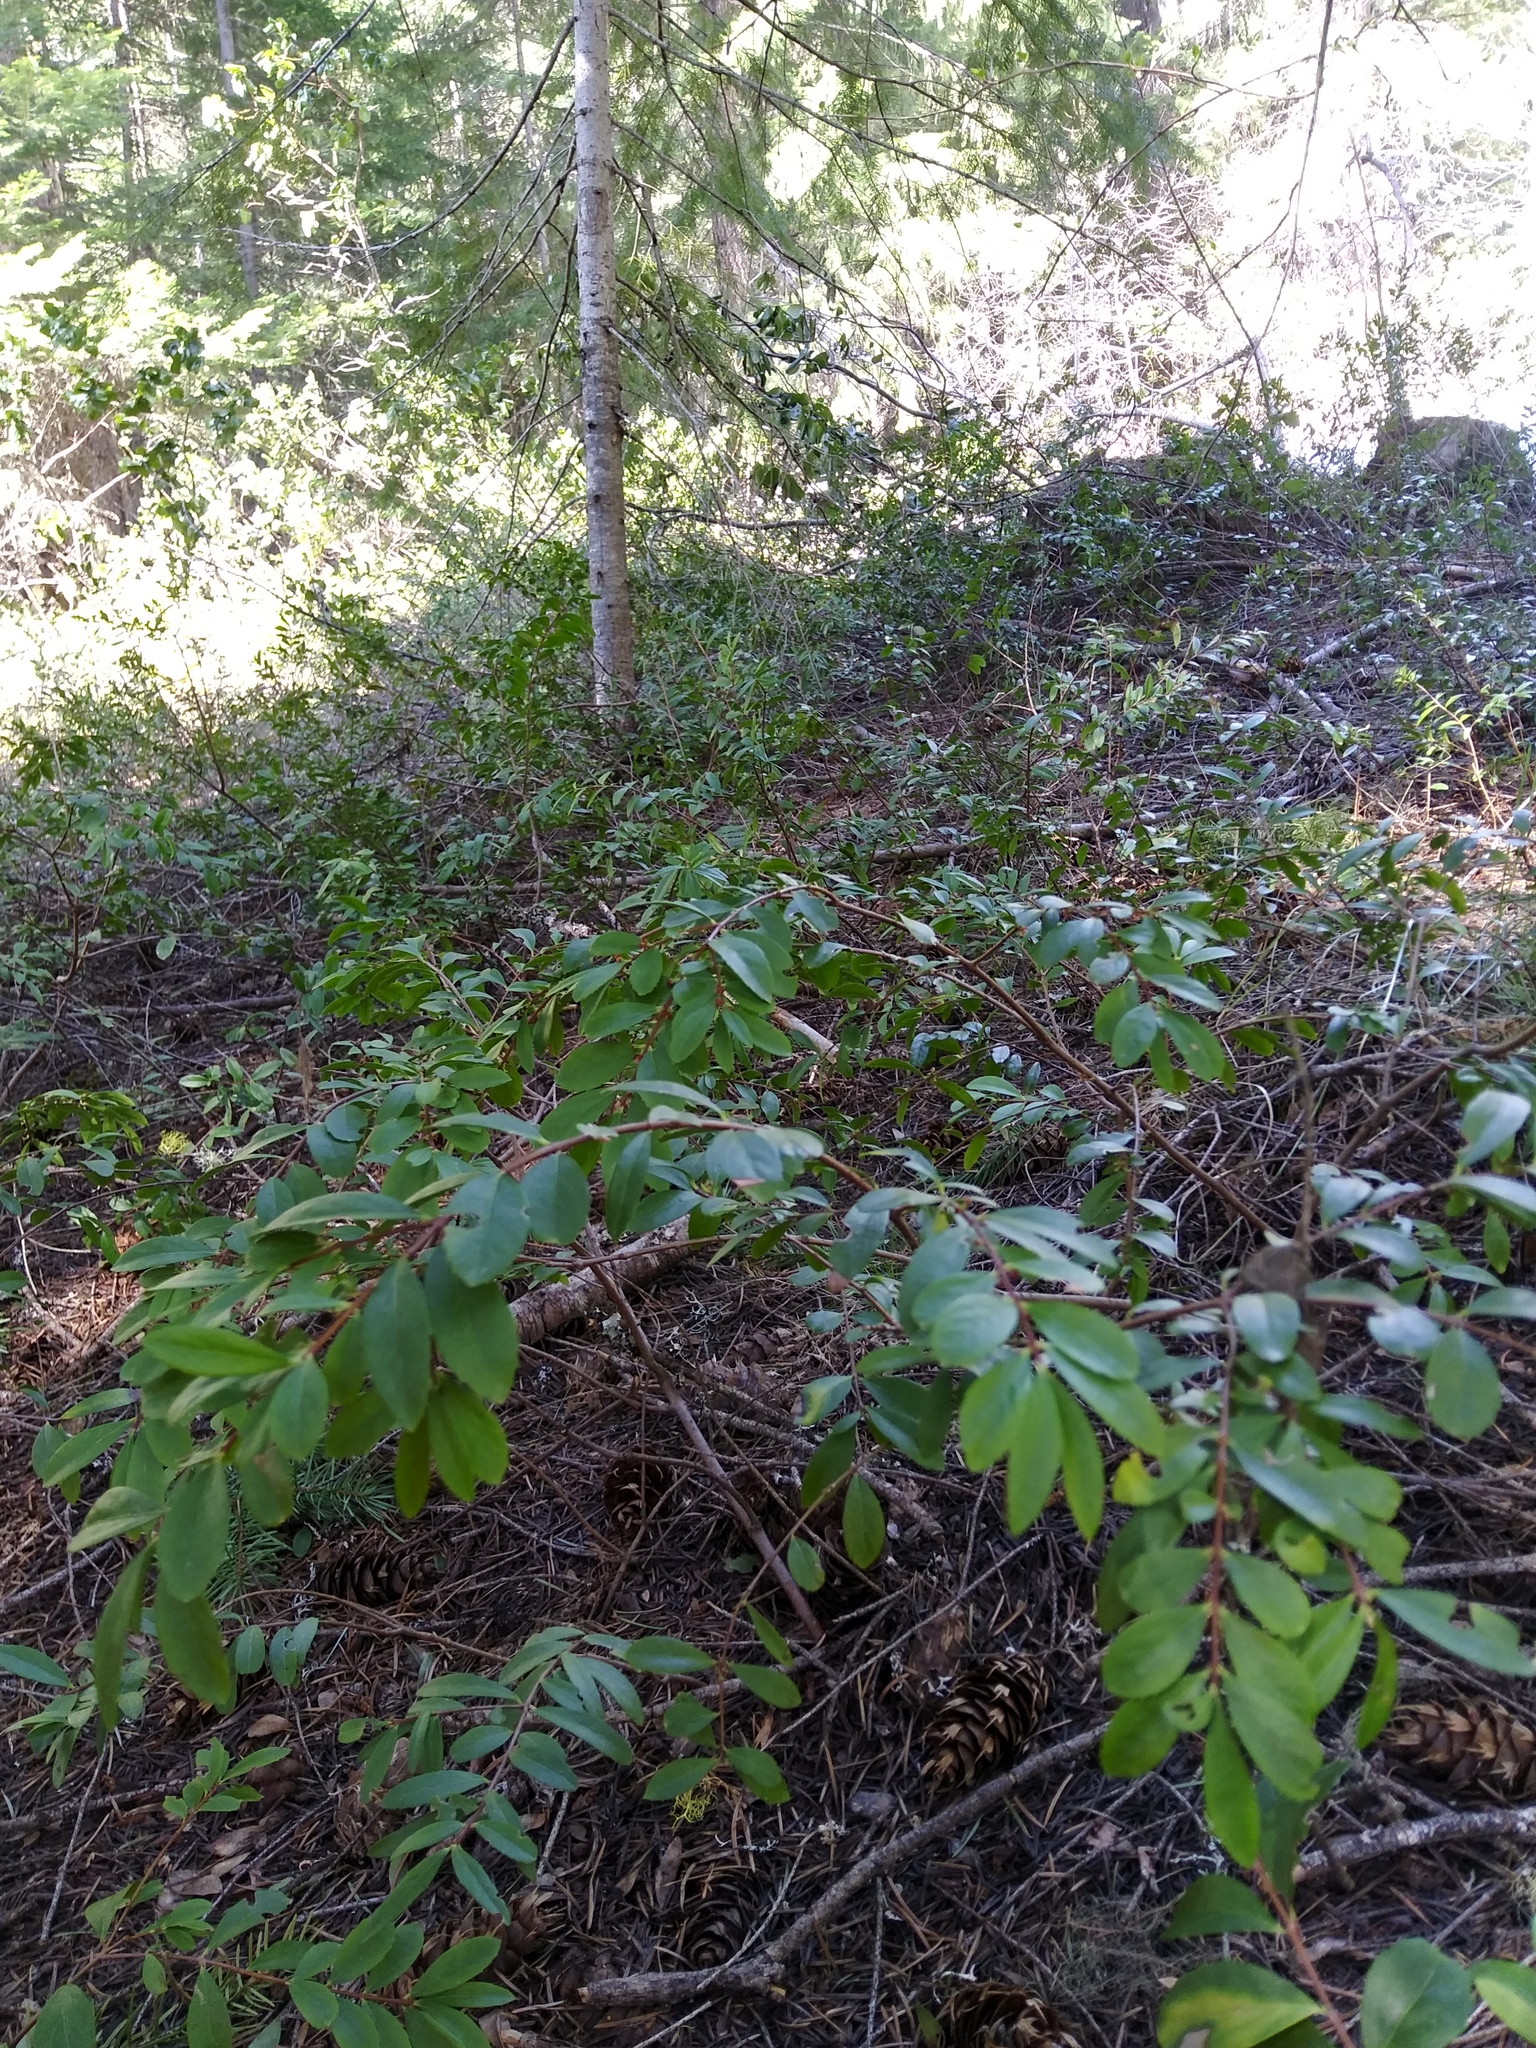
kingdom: Plantae
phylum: Tracheophyta
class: Magnoliopsida
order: Celastrales
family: Celastraceae
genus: Paxistima
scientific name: Paxistima myrsinites
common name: Mountain-lover
